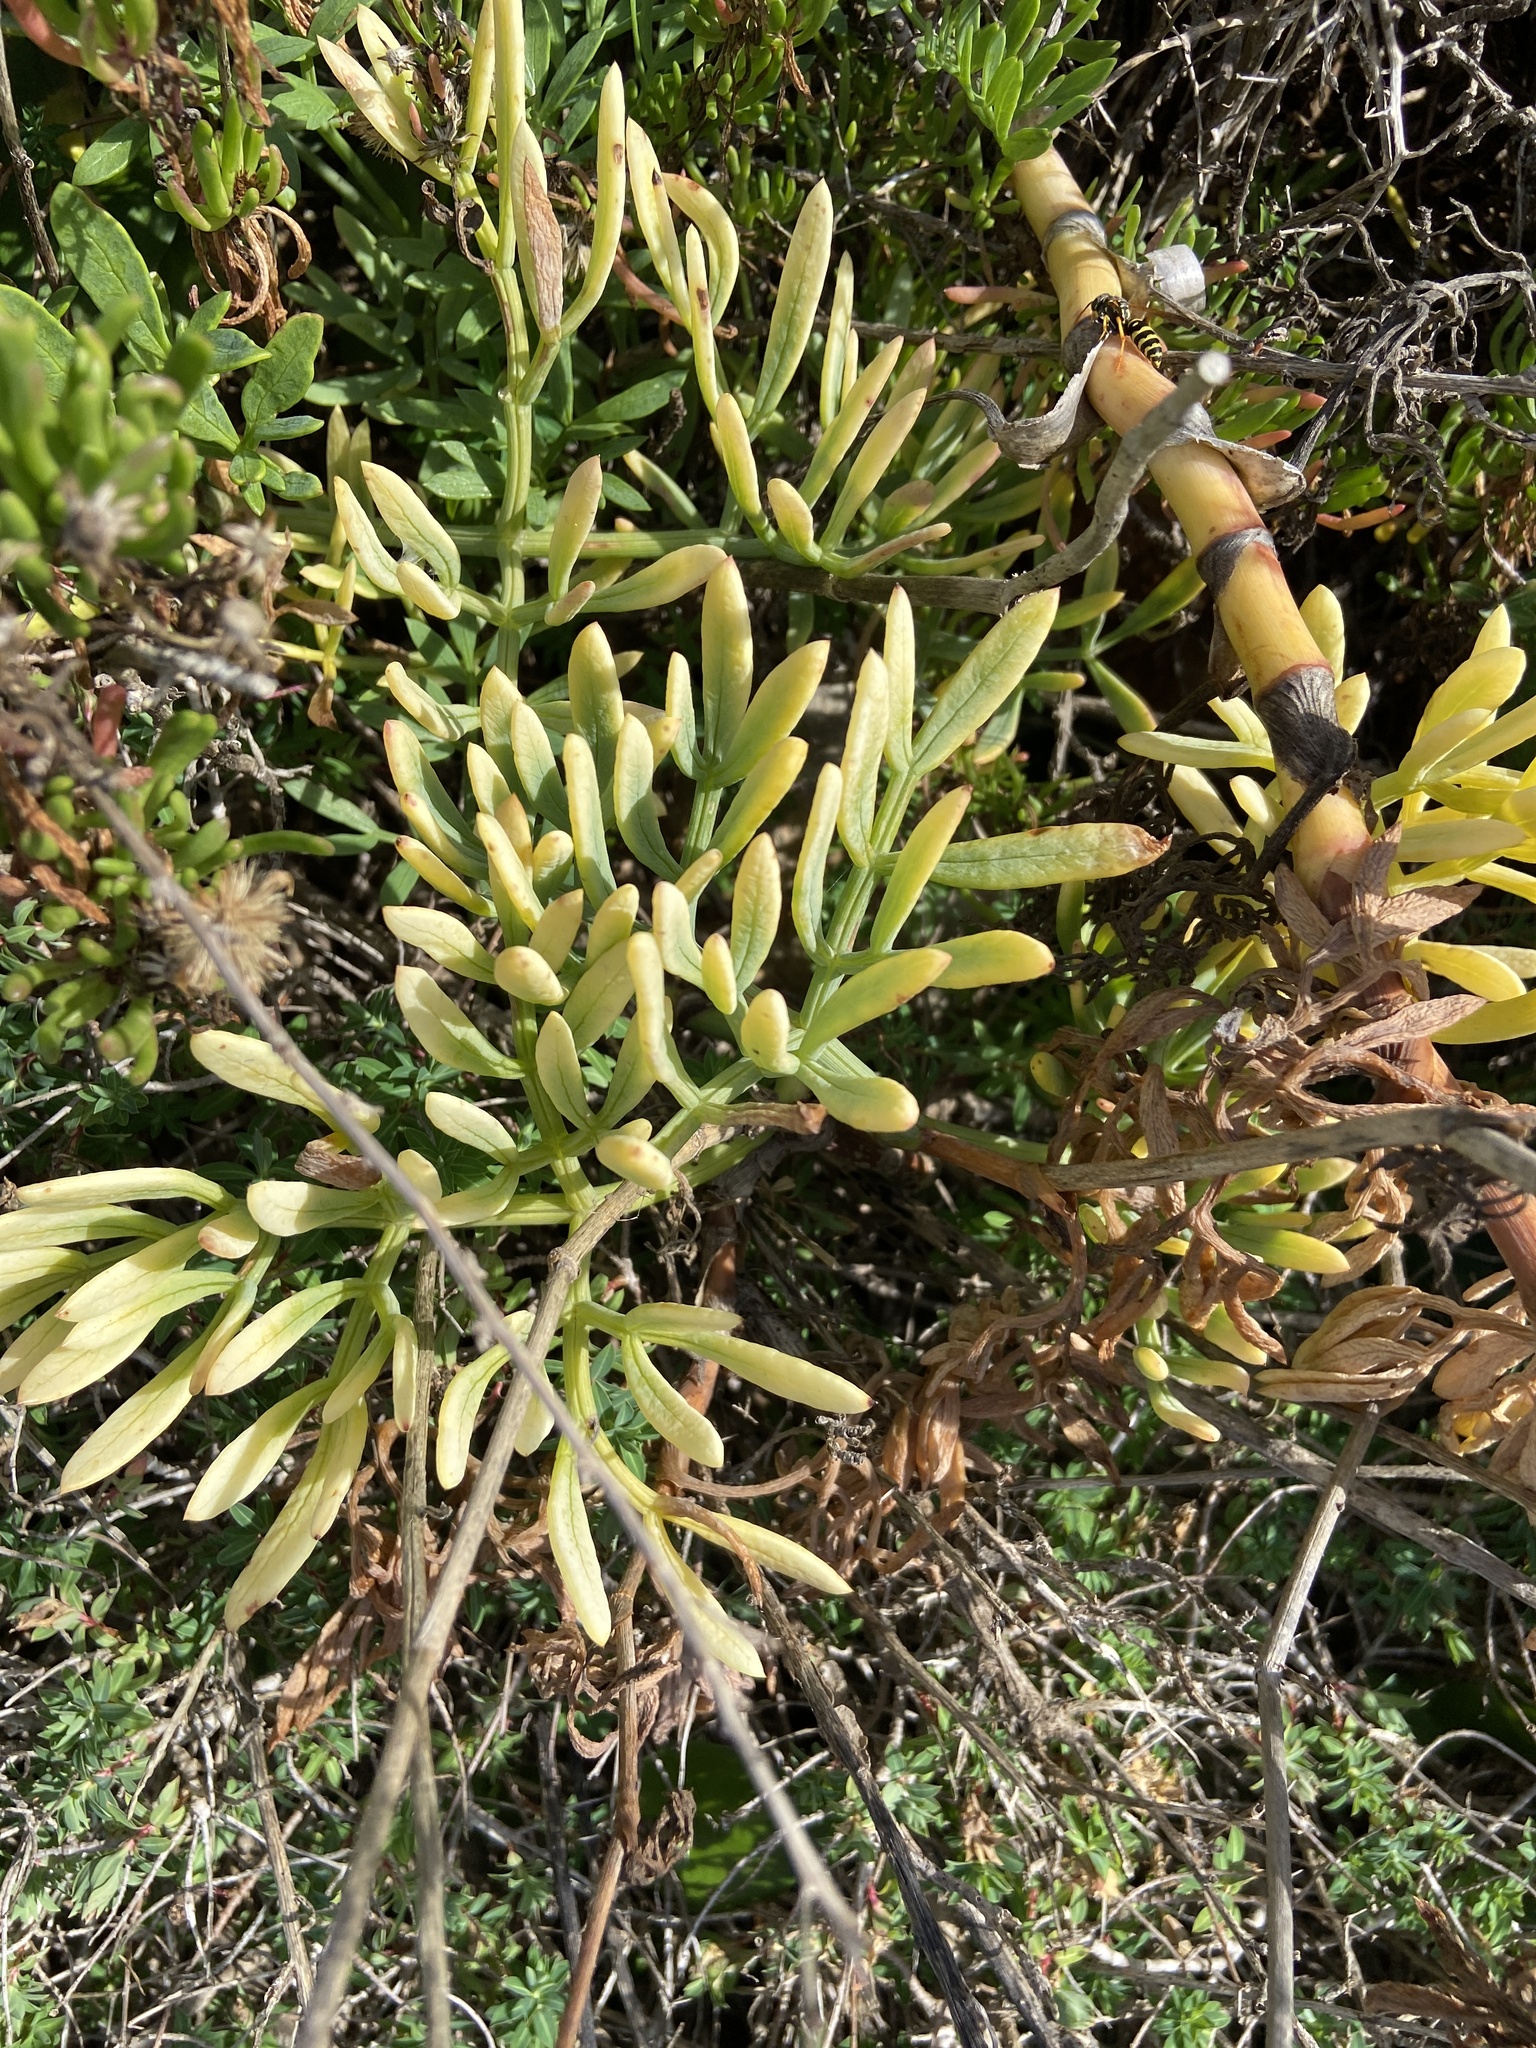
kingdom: Plantae
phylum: Tracheophyta
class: Magnoliopsida
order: Apiales
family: Apiaceae
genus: Crithmum
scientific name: Crithmum maritimum
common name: Rock samphire
